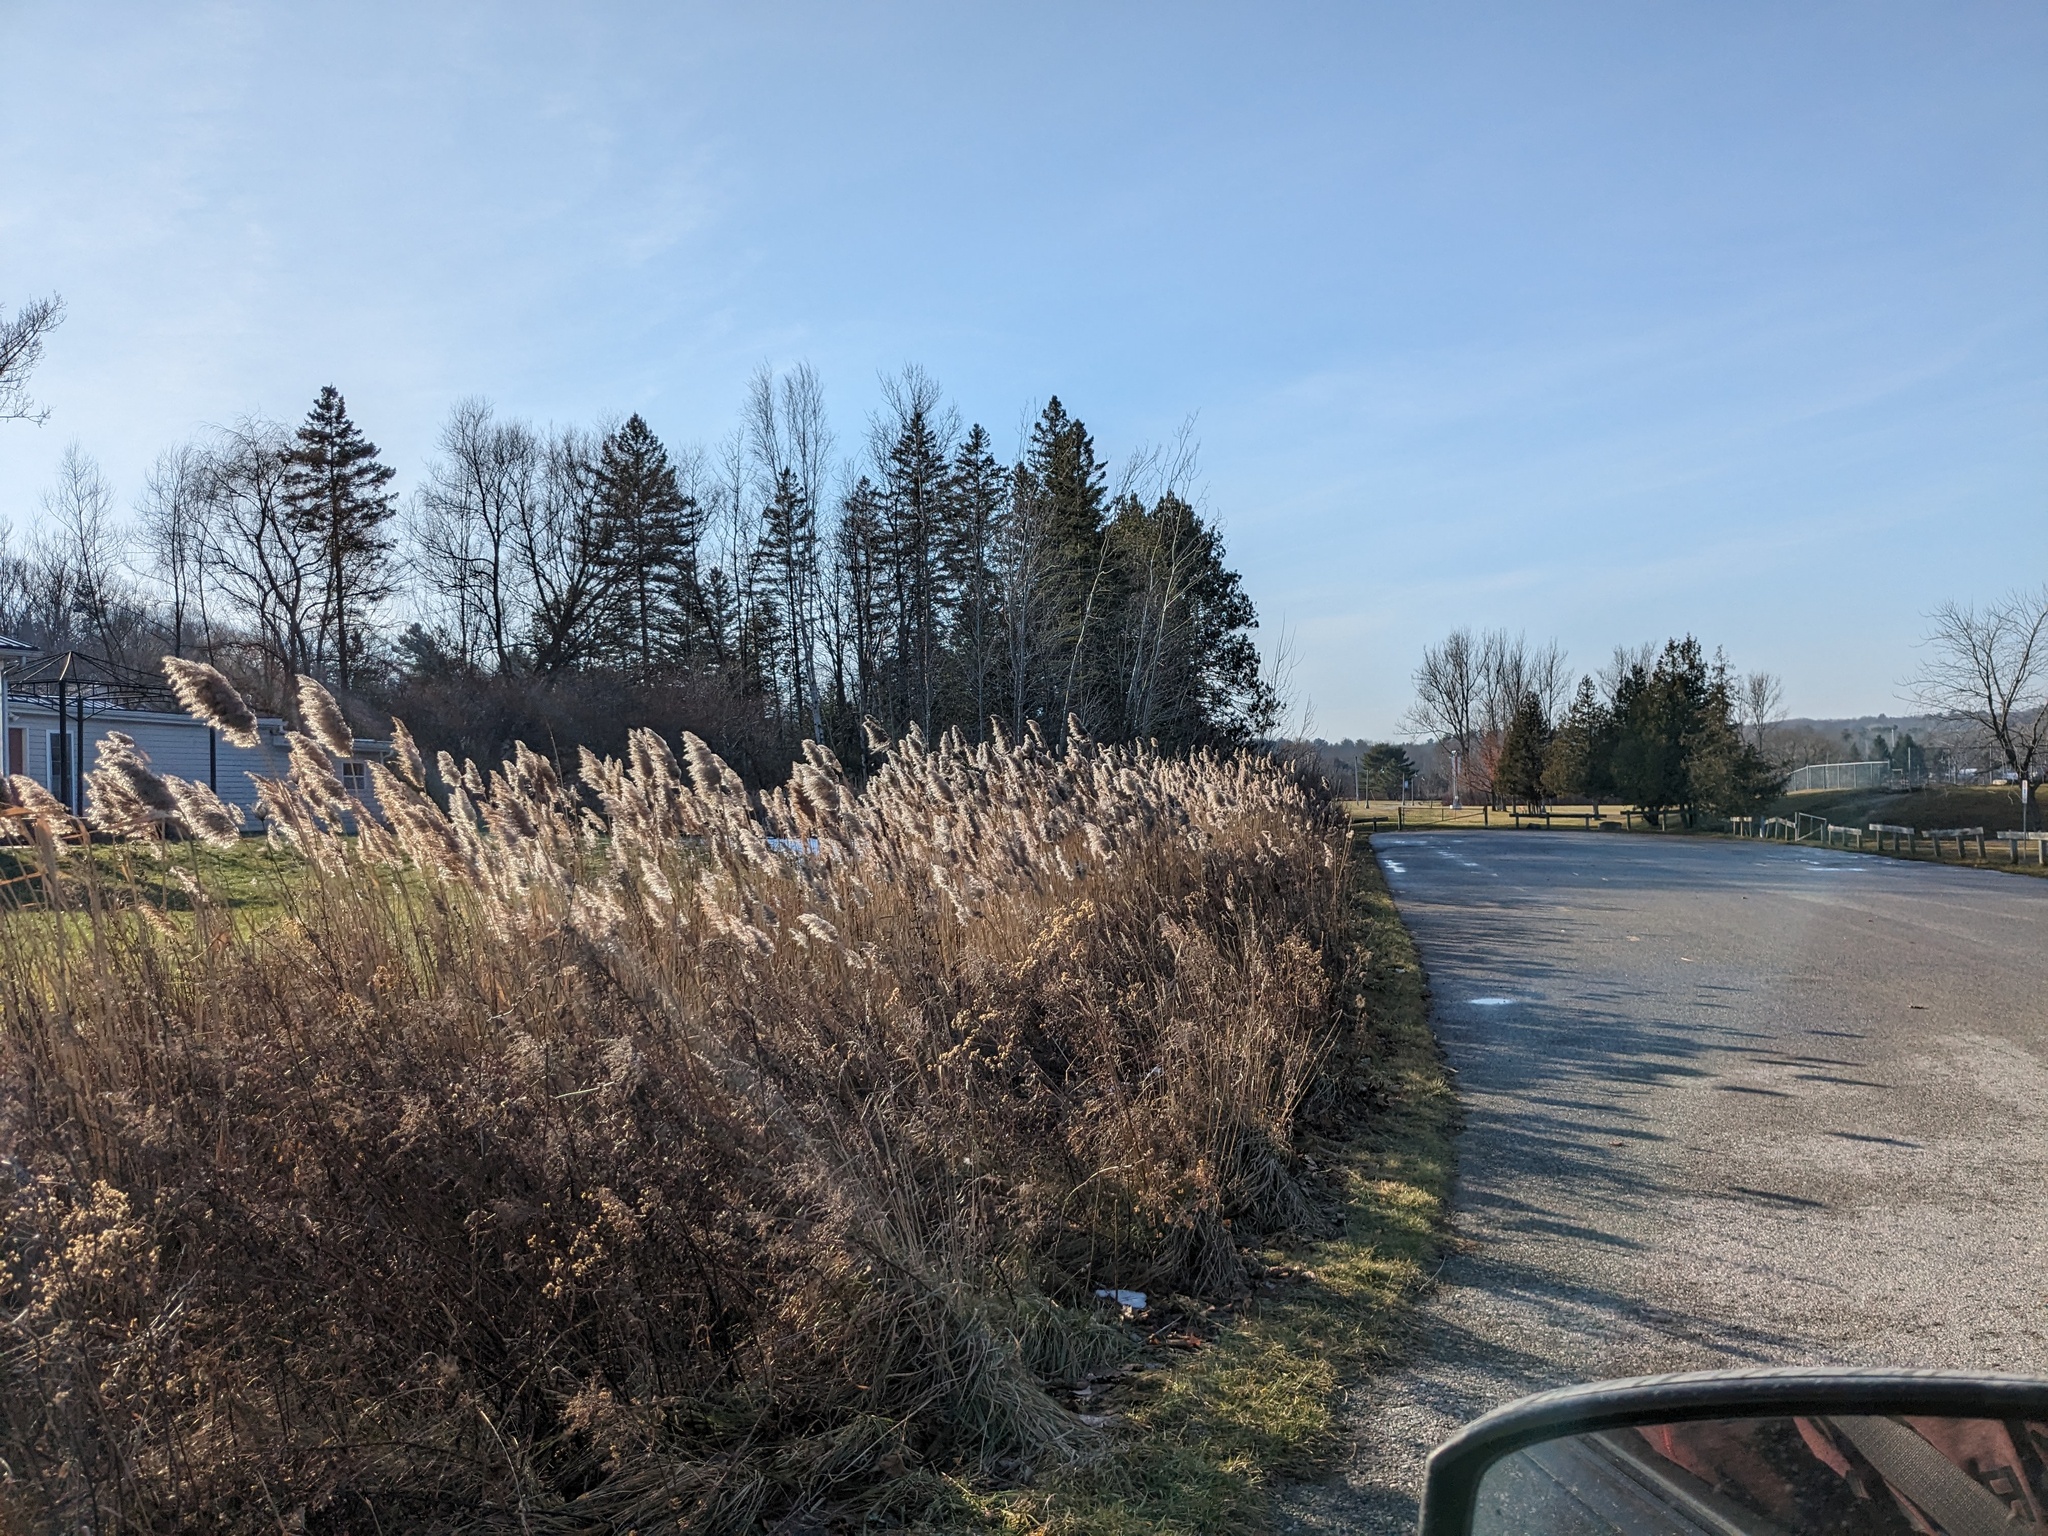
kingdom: Plantae
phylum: Tracheophyta
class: Liliopsida
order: Poales
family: Poaceae
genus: Phragmites
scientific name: Phragmites australis
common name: Common reed
